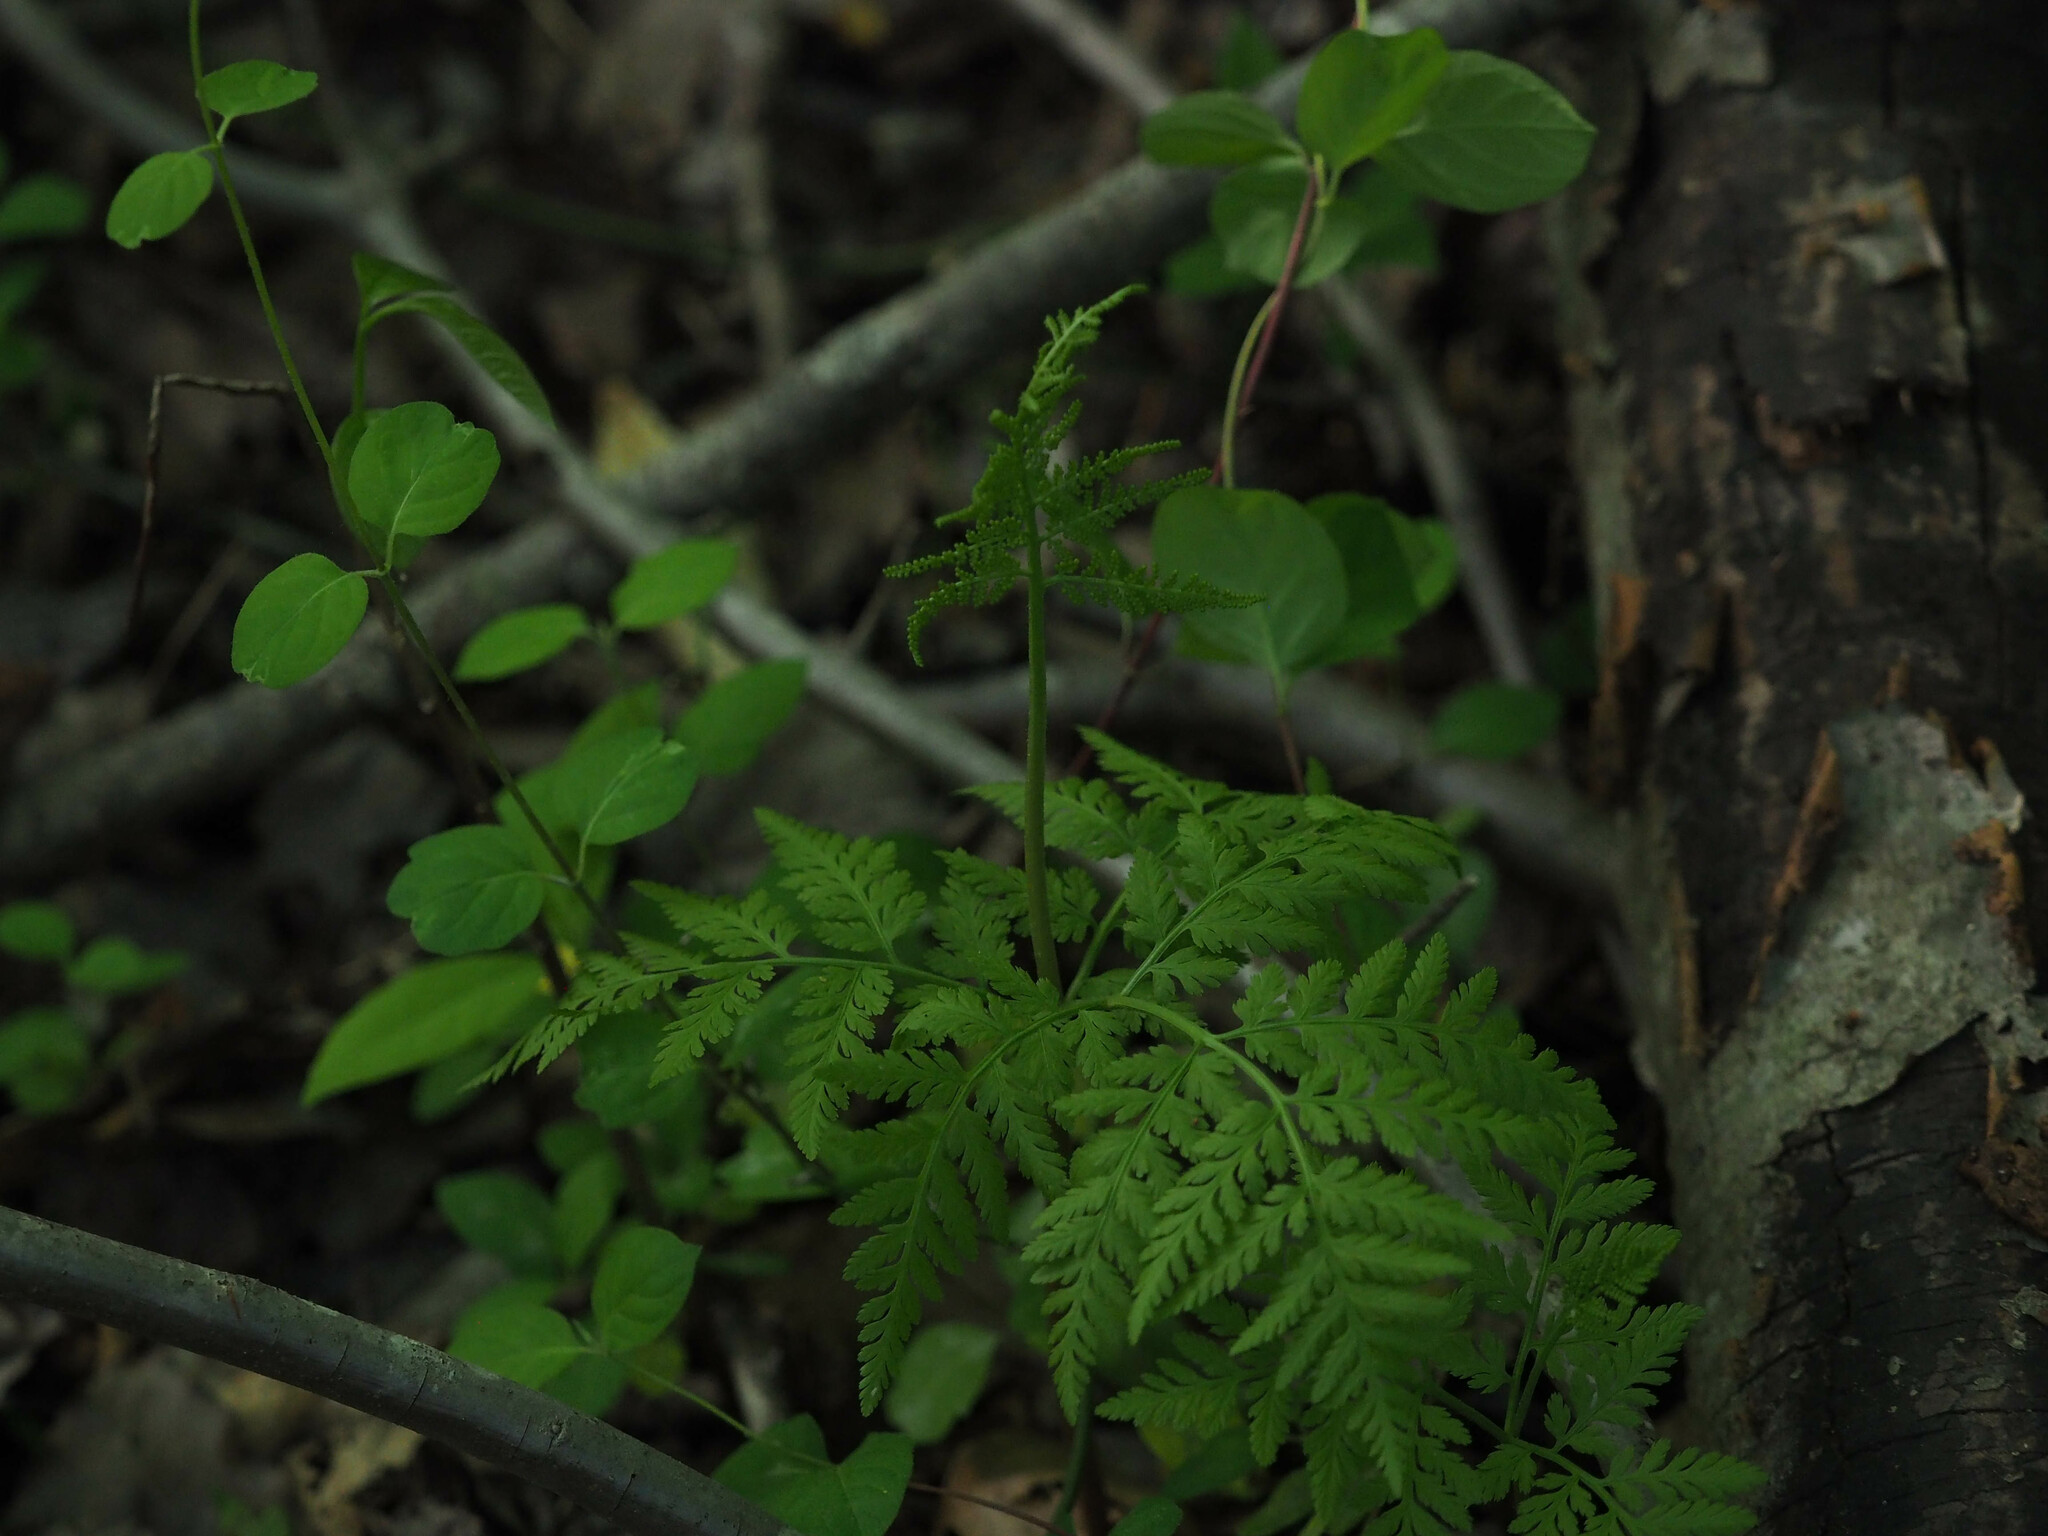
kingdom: Plantae
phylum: Tracheophyta
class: Polypodiopsida
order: Ophioglossales
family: Ophioglossaceae
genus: Botrypus
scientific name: Botrypus virginianus
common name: Common grapefern
